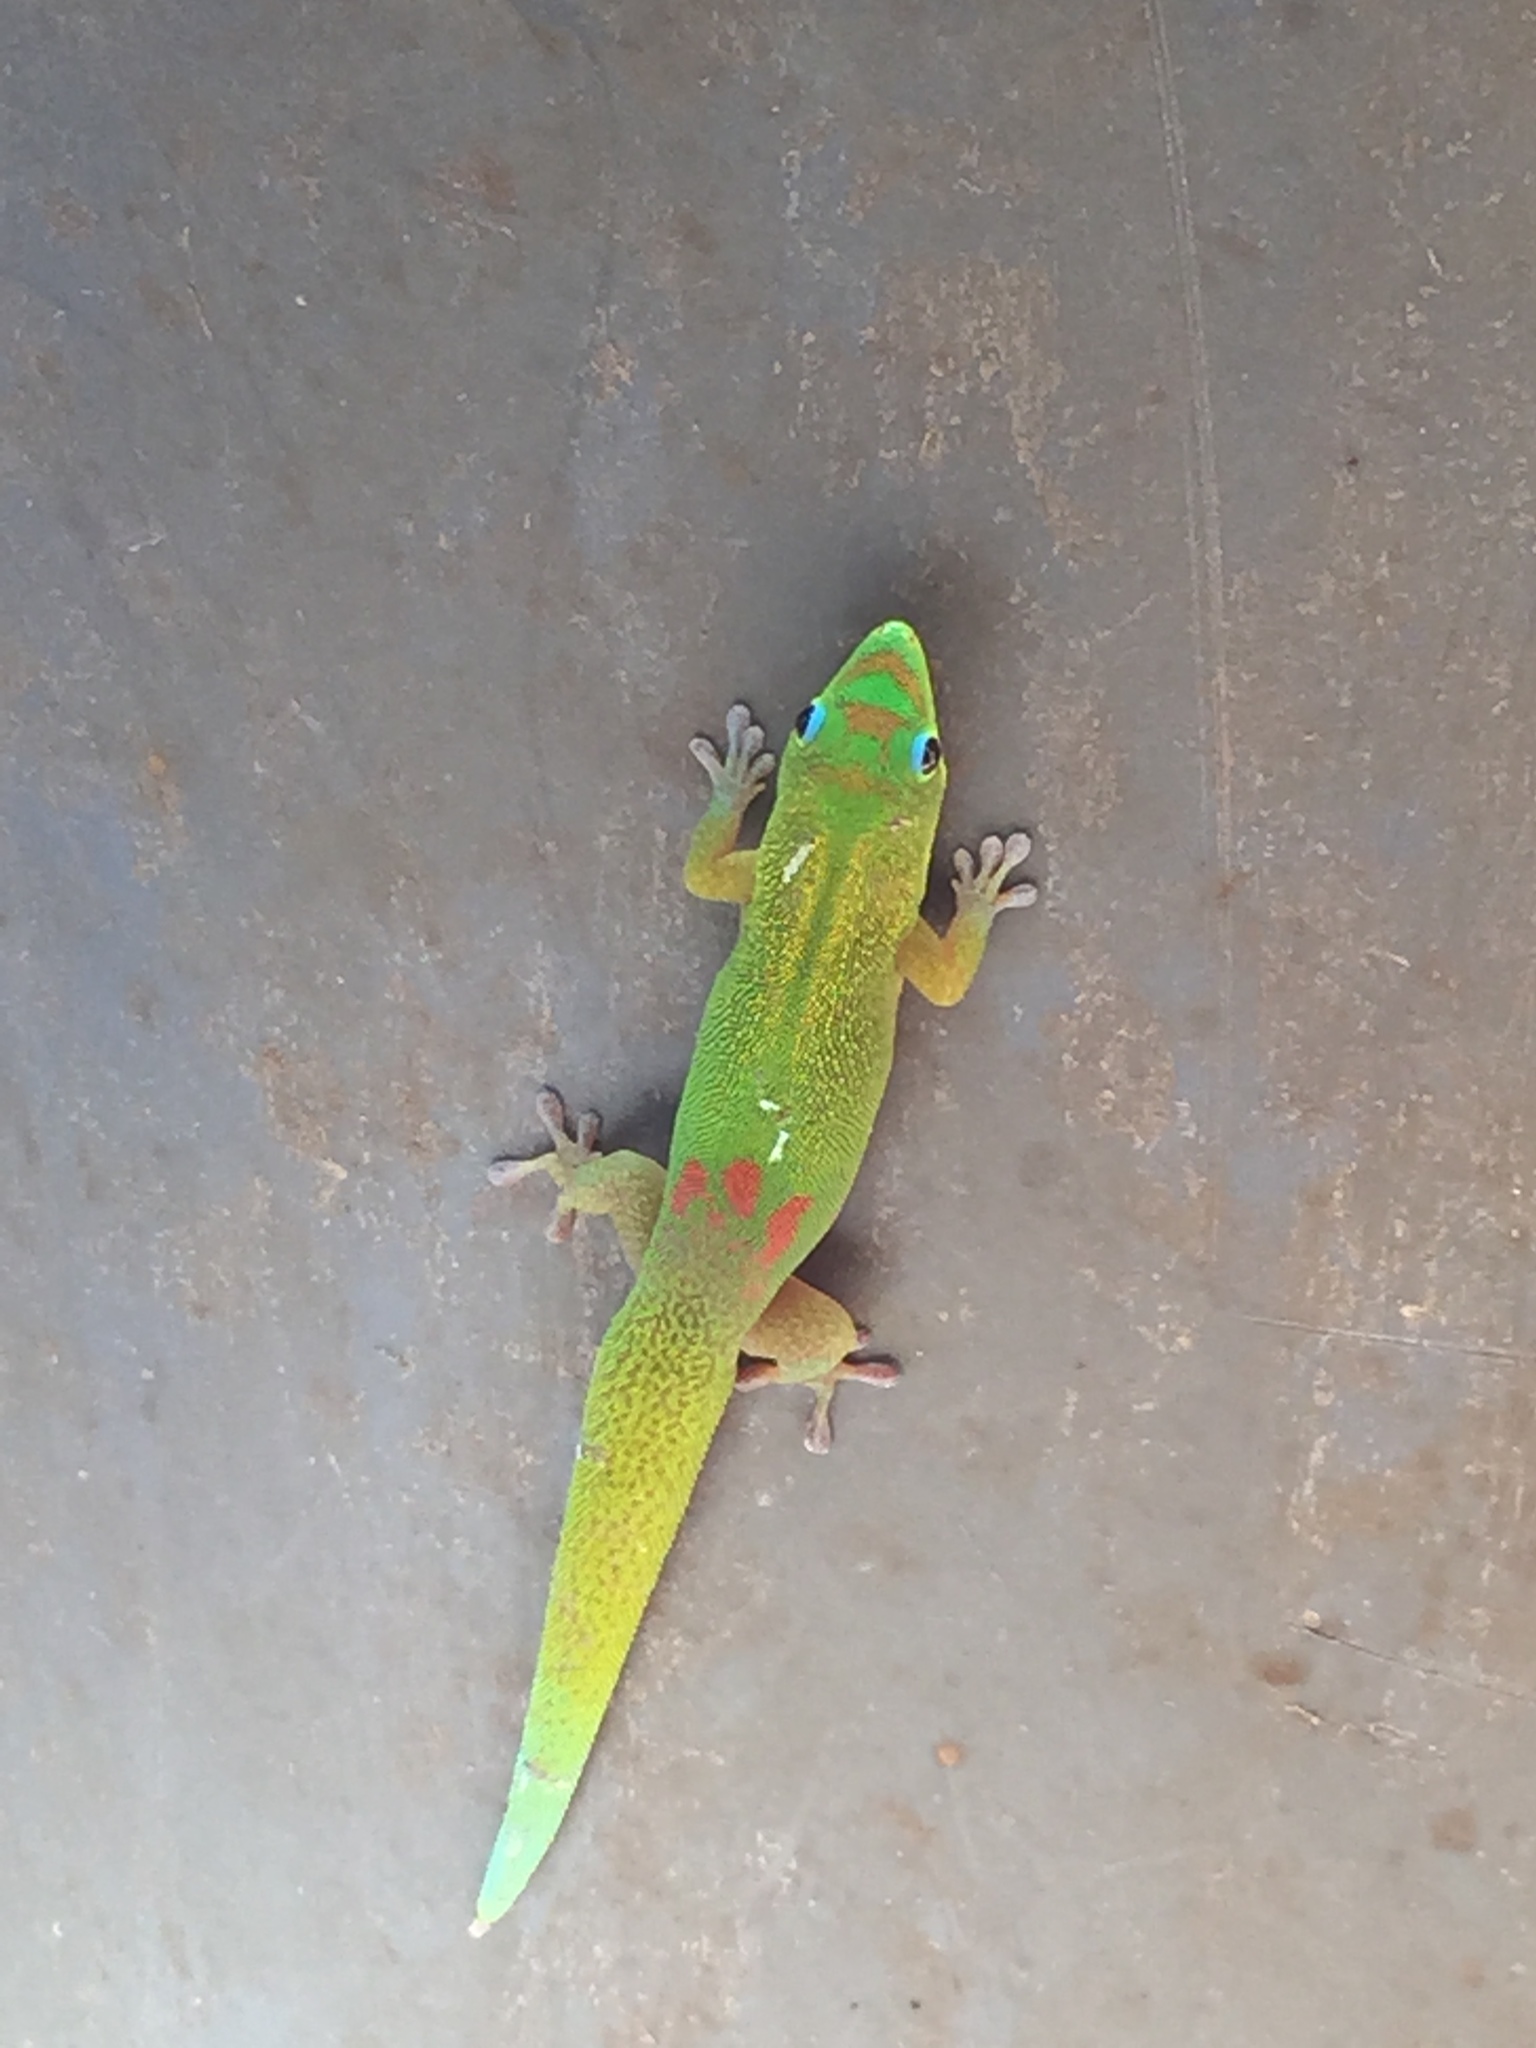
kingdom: Animalia
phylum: Chordata
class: Squamata
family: Gekkonidae
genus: Phelsuma
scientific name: Phelsuma laticauda
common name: Gold dust day gecko
